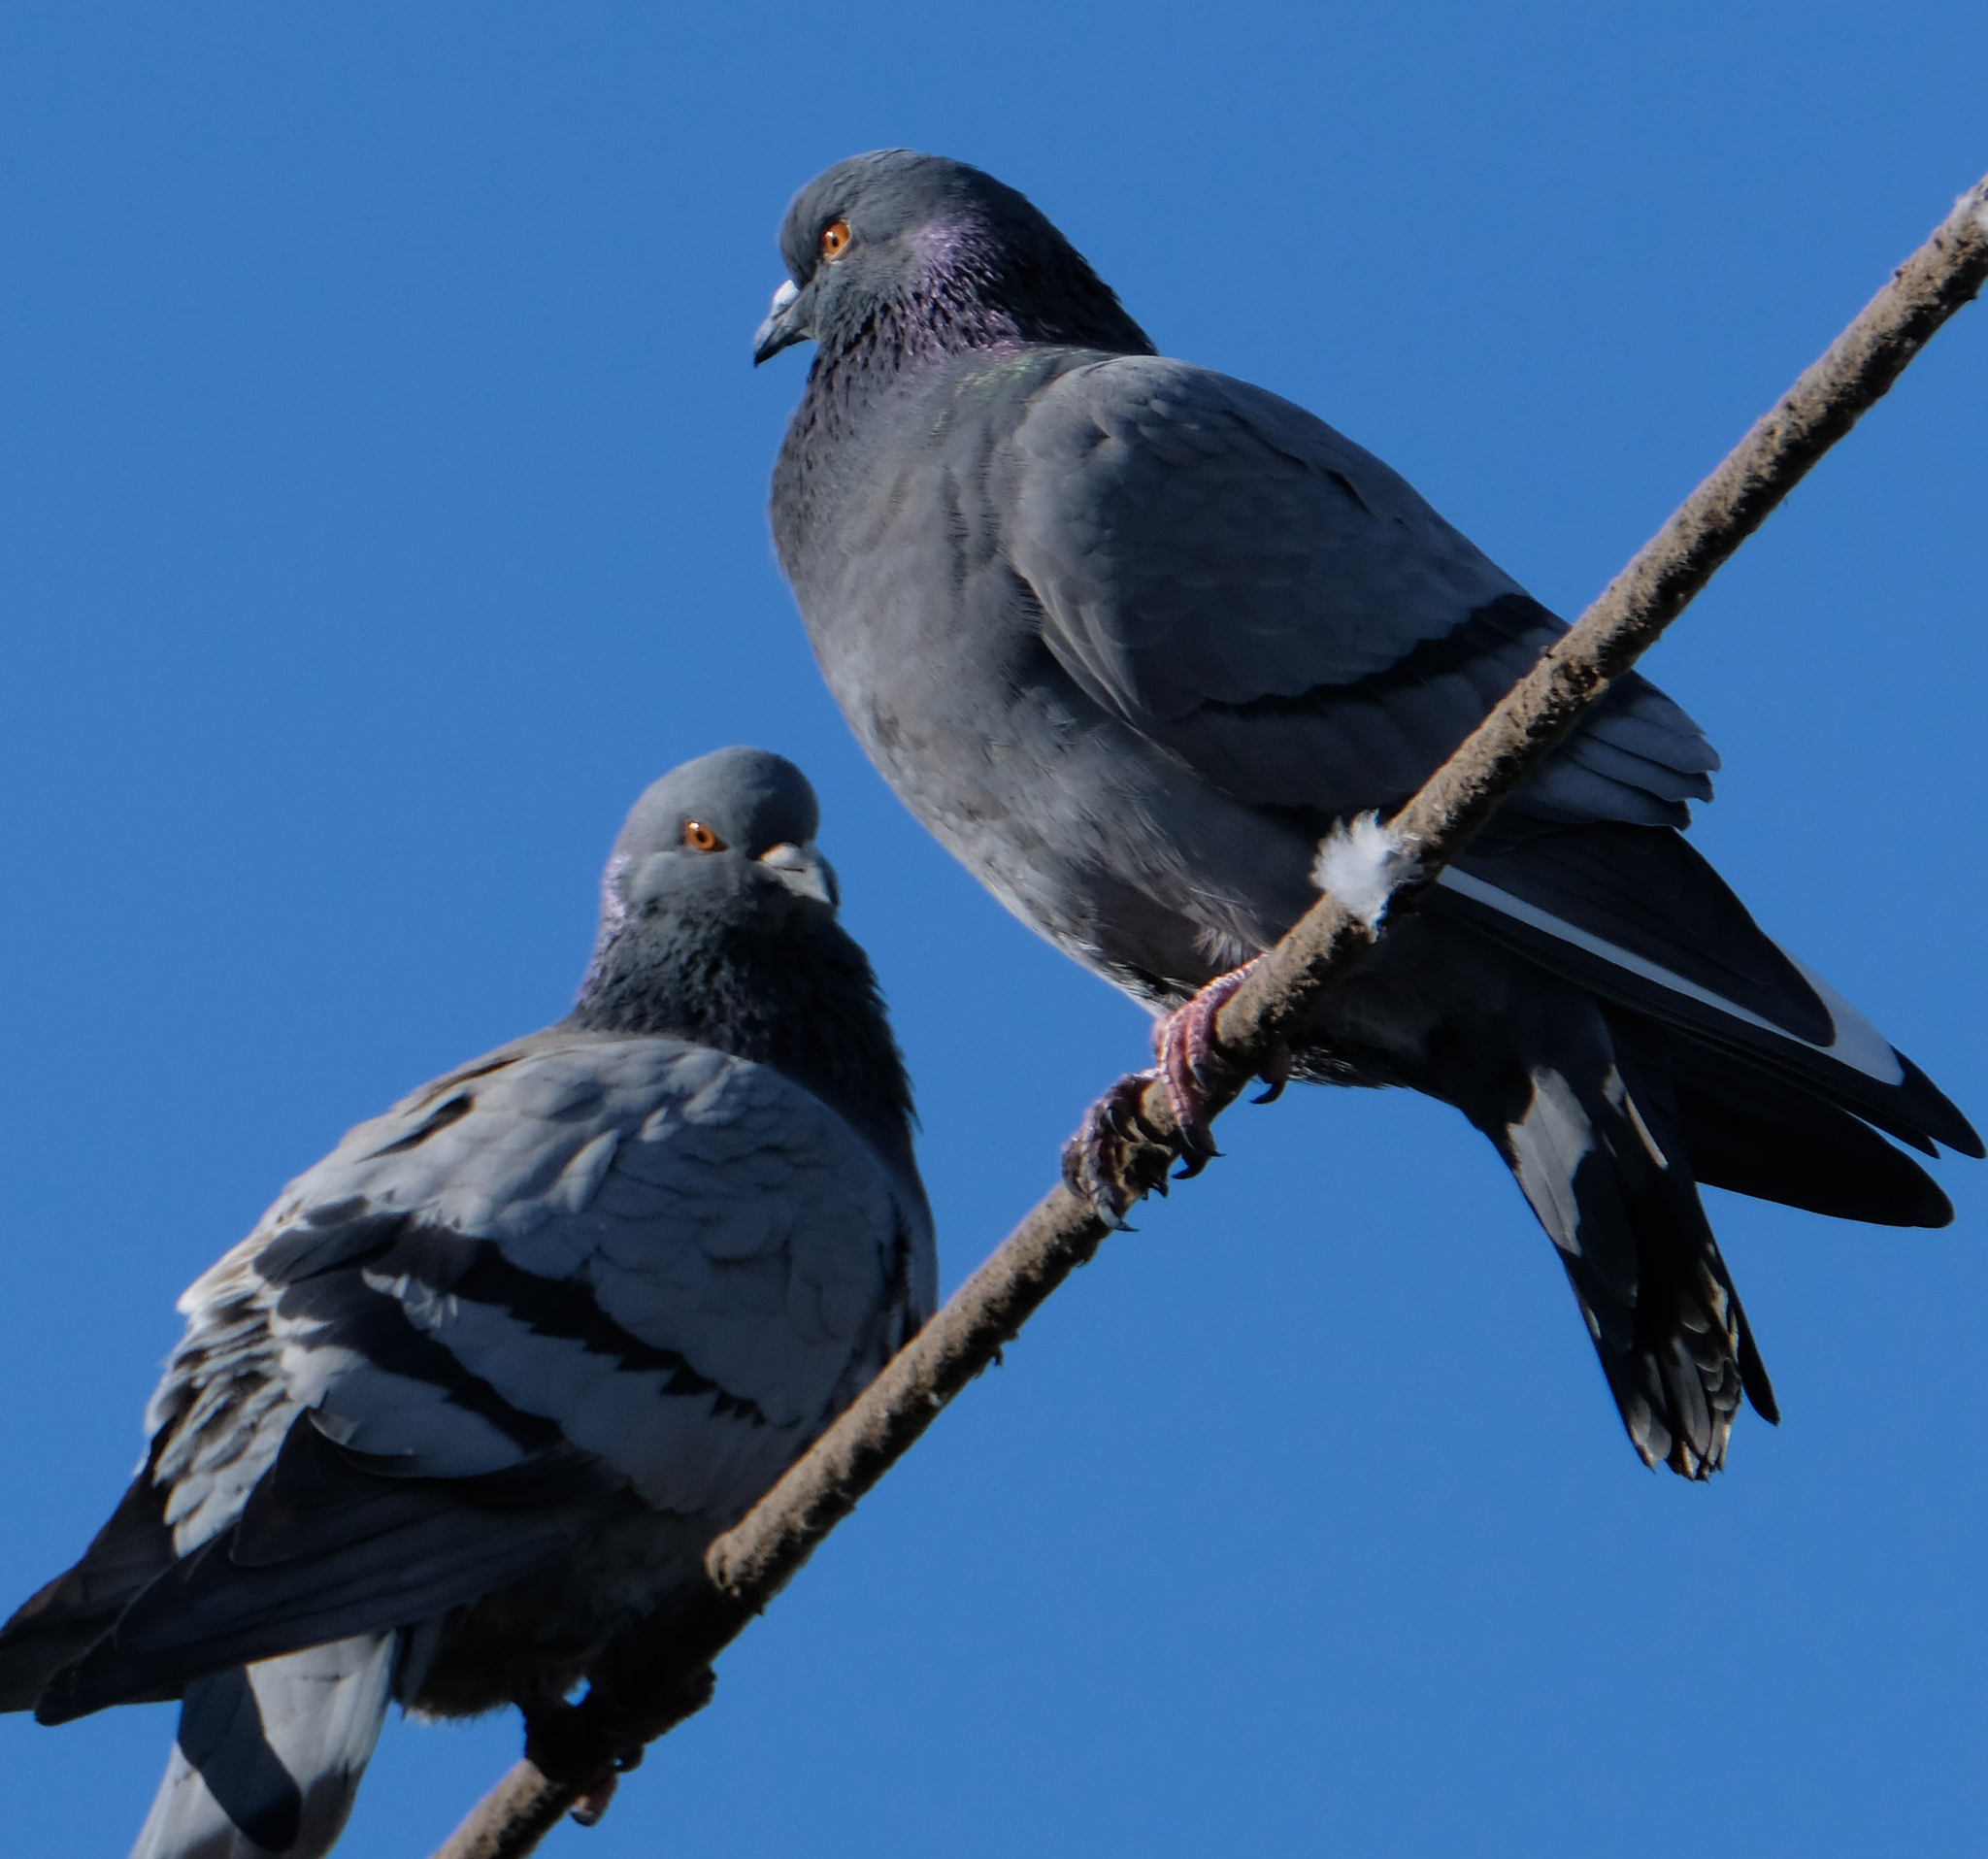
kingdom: Animalia
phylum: Chordata
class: Aves
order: Columbiformes
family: Columbidae
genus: Columba
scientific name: Columba livia
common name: Rock pigeon
